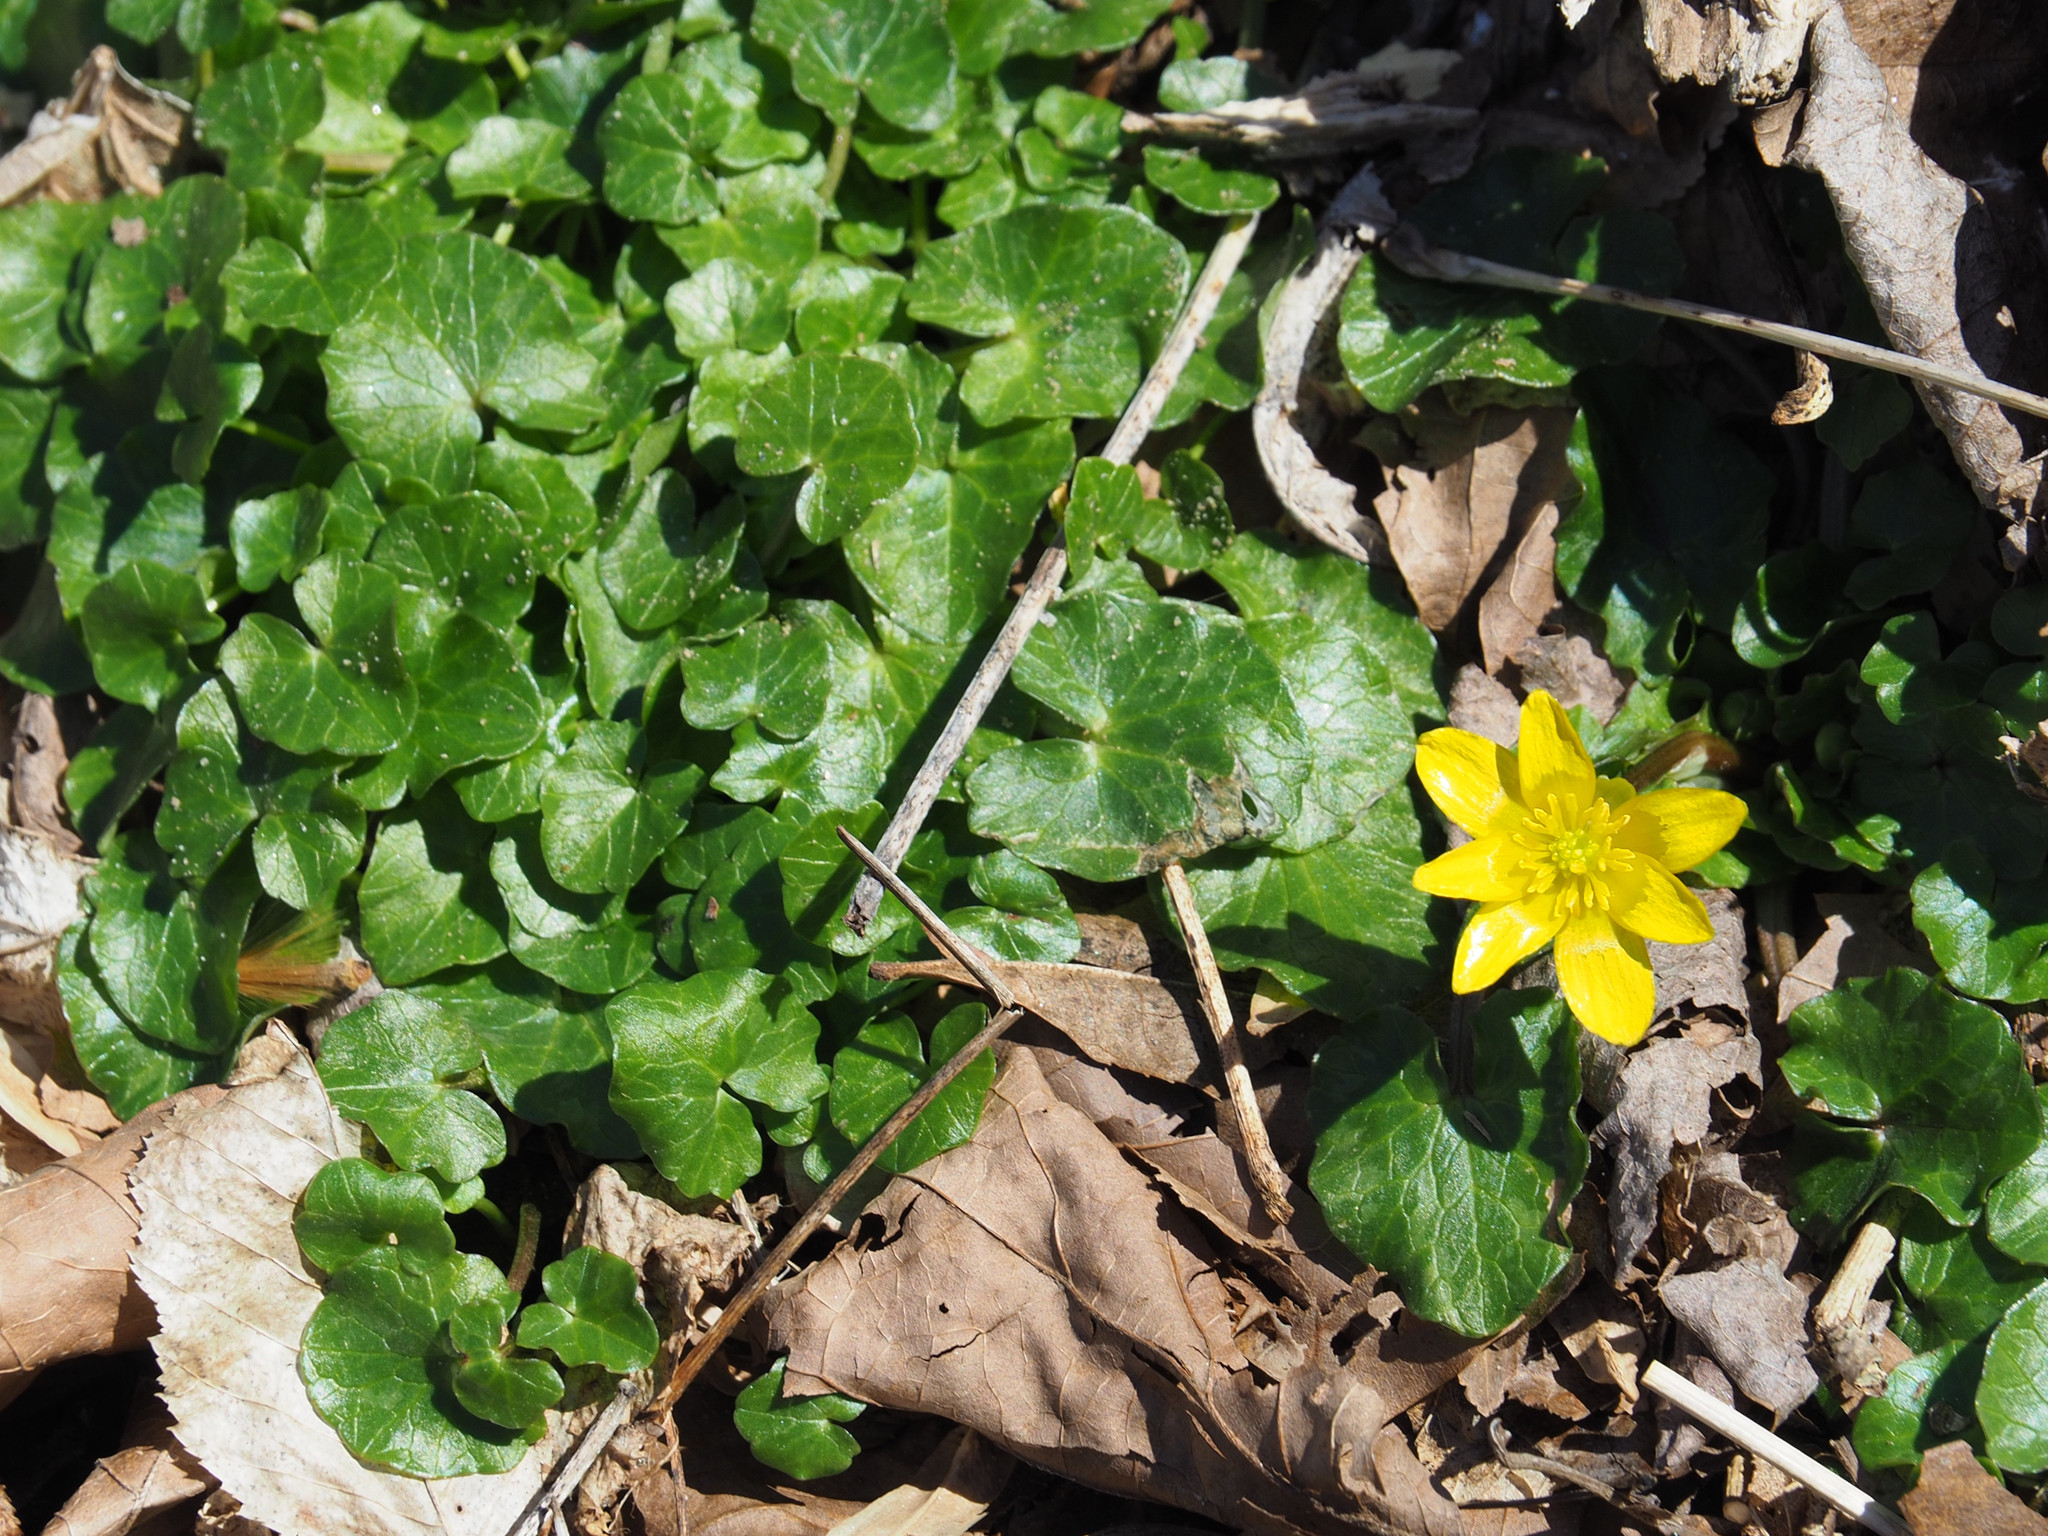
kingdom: Plantae
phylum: Tracheophyta
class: Magnoliopsida
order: Ranunculales
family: Ranunculaceae
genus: Ficaria
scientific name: Ficaria verna
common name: Lesser celandine
